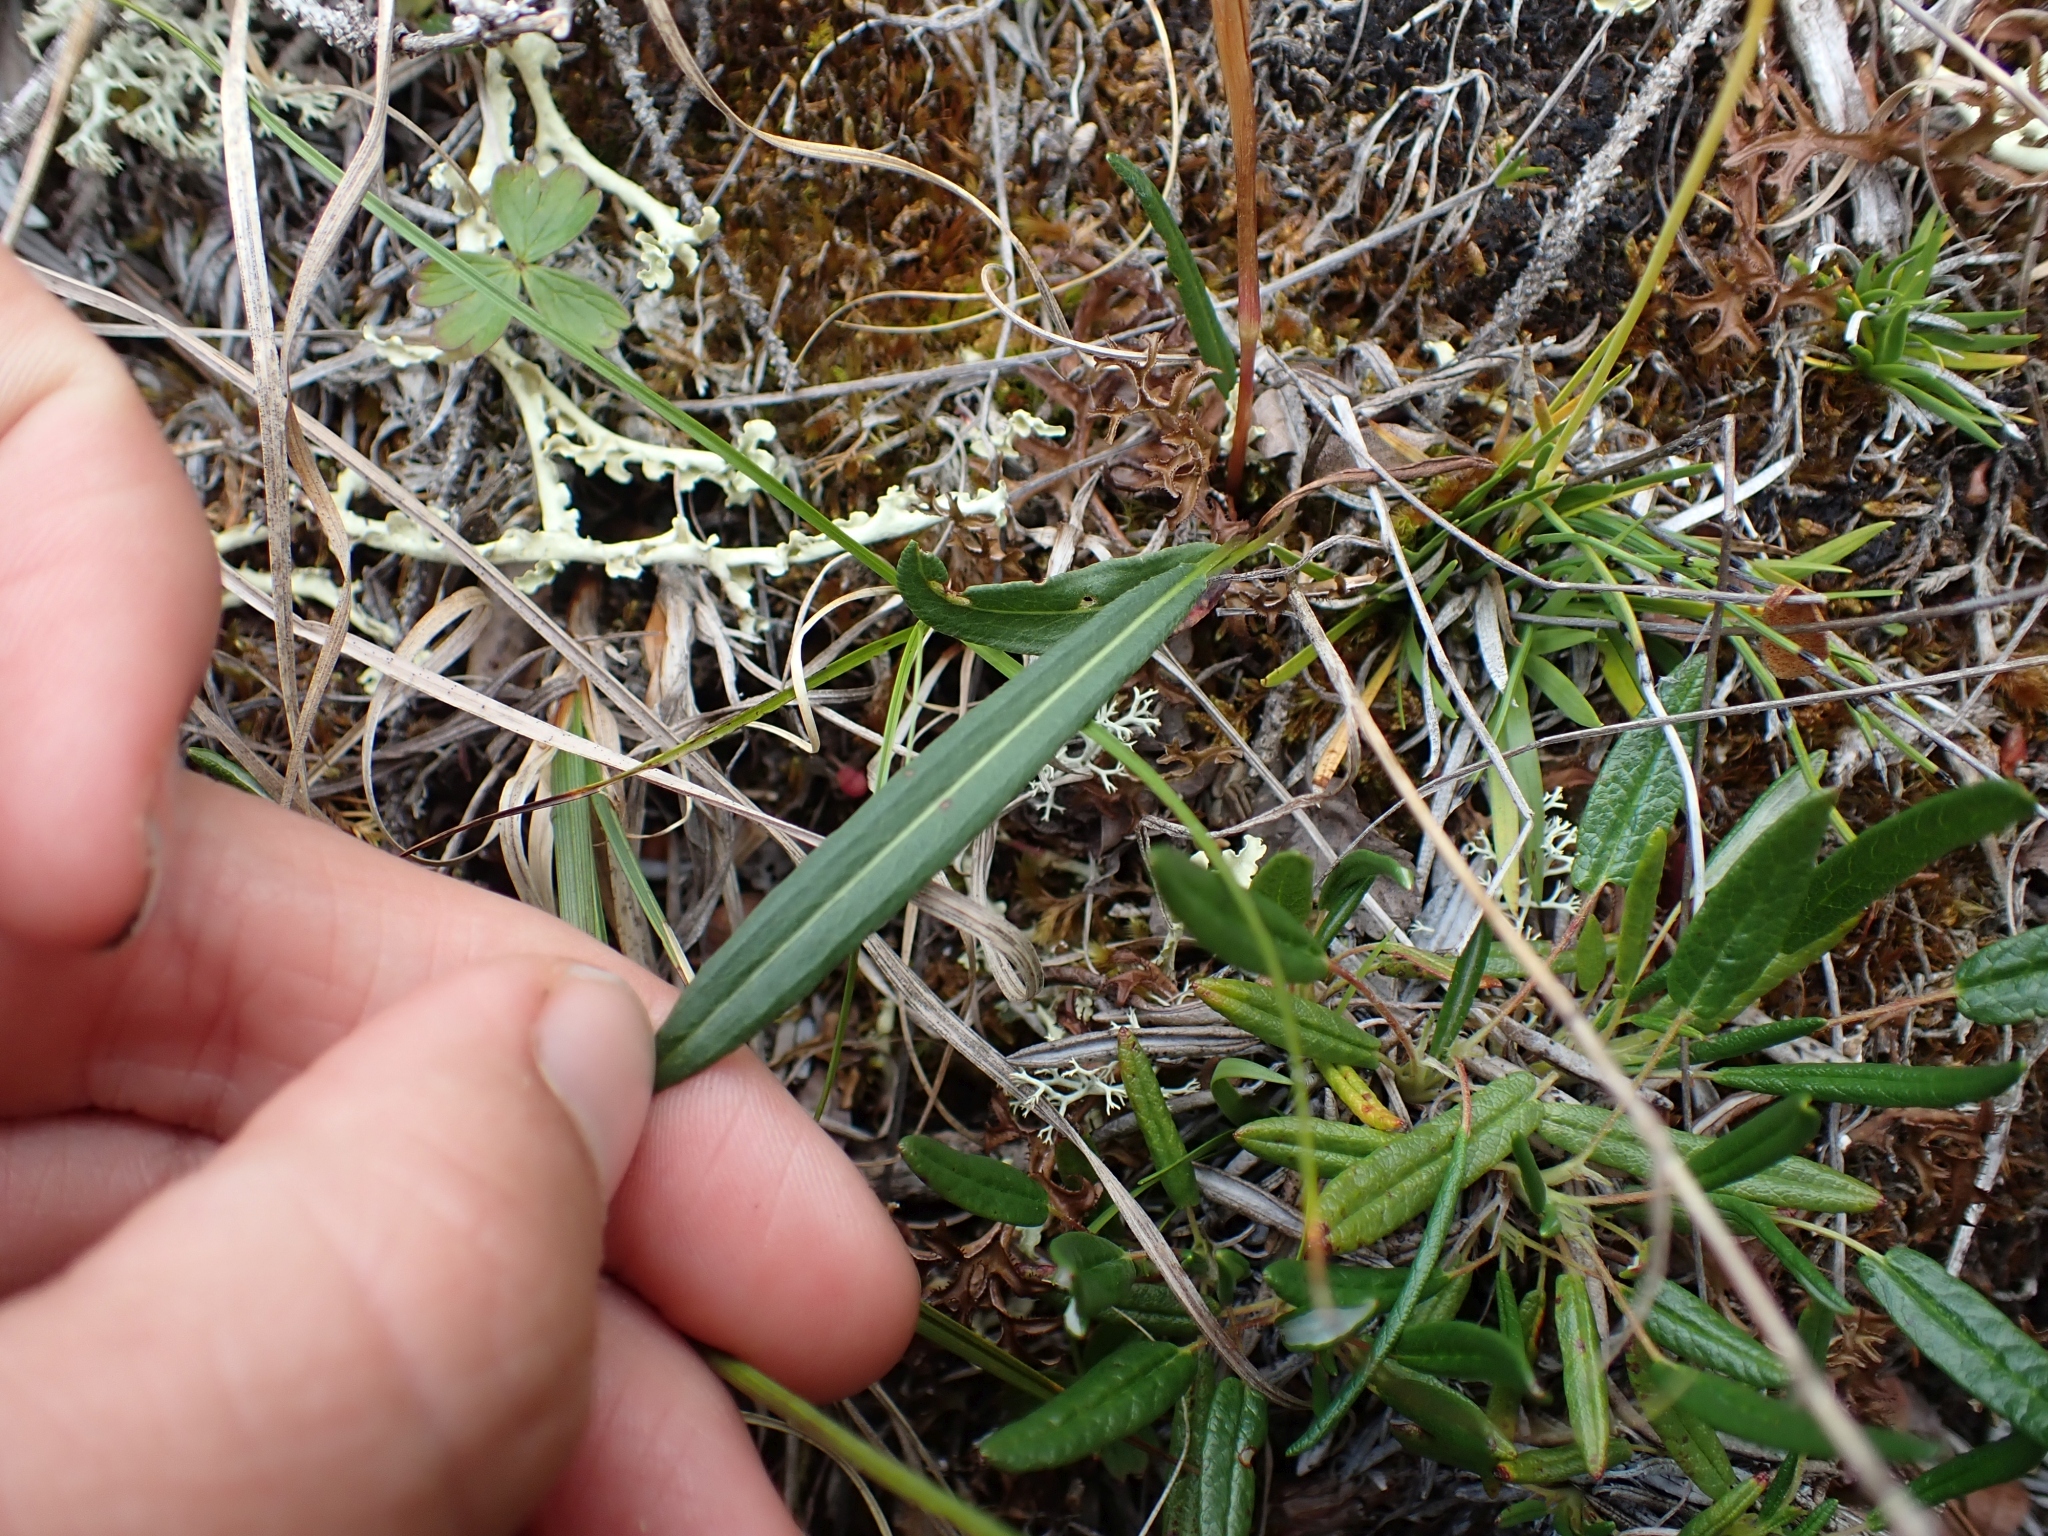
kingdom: Plantae
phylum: Tracheophyta
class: Magnoliopsida
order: Caryophyllales
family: Polygonaceae
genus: Bistorta
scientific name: Bistorta vivipara
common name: Alpine bistort
